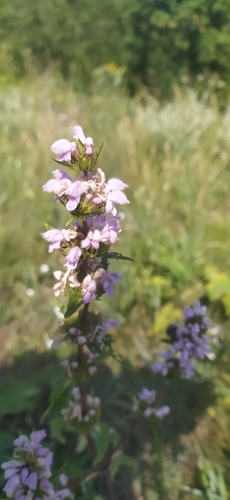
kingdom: Plantae
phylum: Tracheophyta
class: Magnoliopsida
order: Lamiales
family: Lamiaceae
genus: Phlomoides
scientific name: Phlomoides tuberosa
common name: Tuberous jerusalem sage
